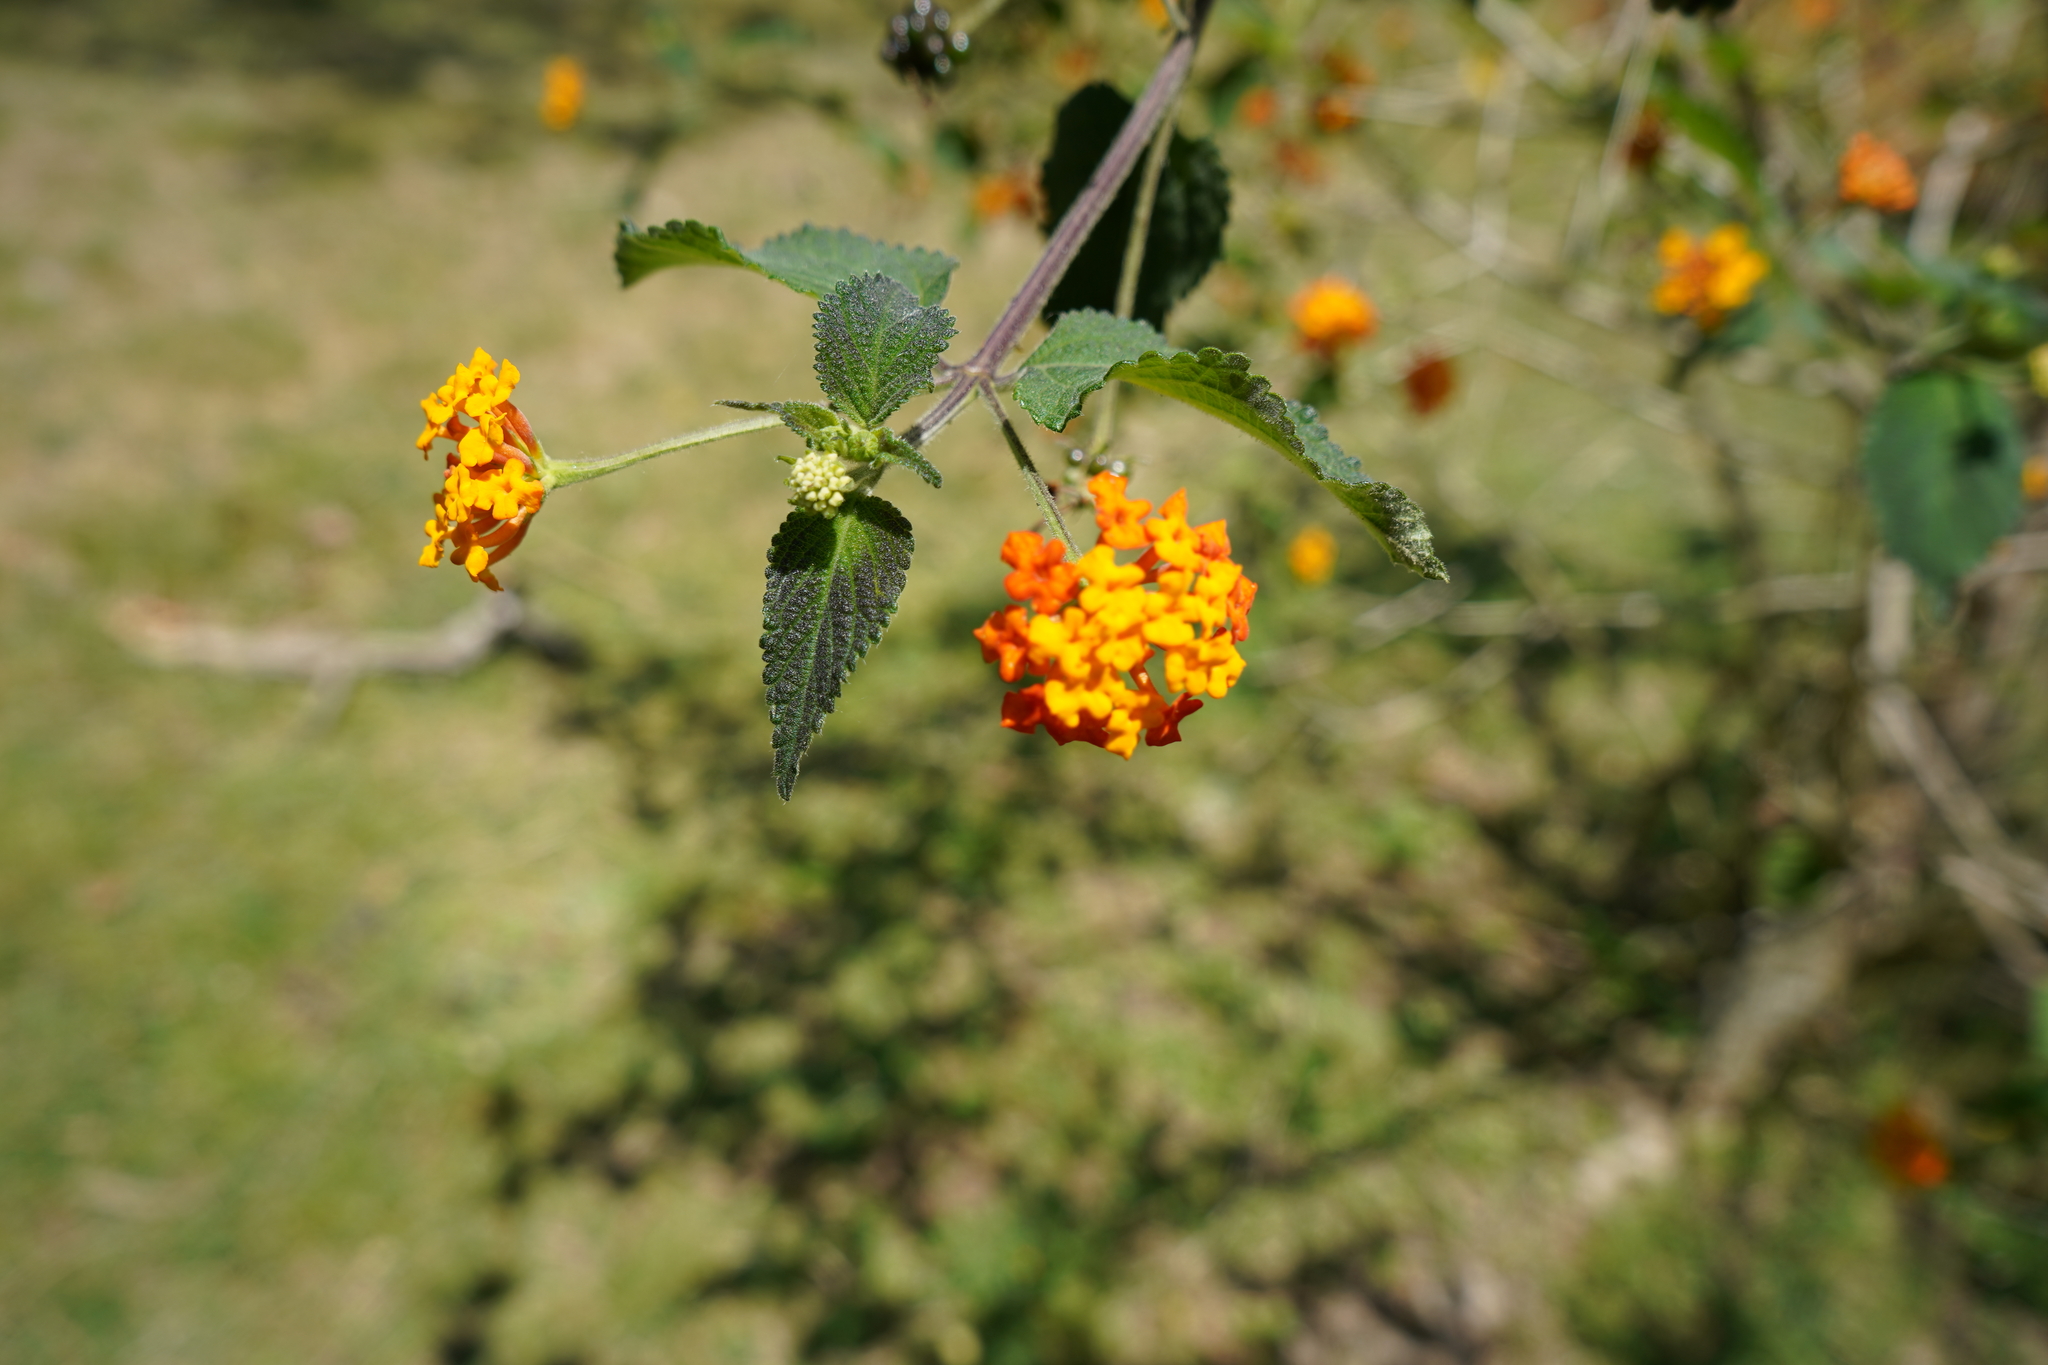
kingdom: Plantae
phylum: Tracheophyta
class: Magnoliopsida
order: Lamiales
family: Verbenaceae
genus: Lantana
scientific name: Lantana camara
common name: Lantana
